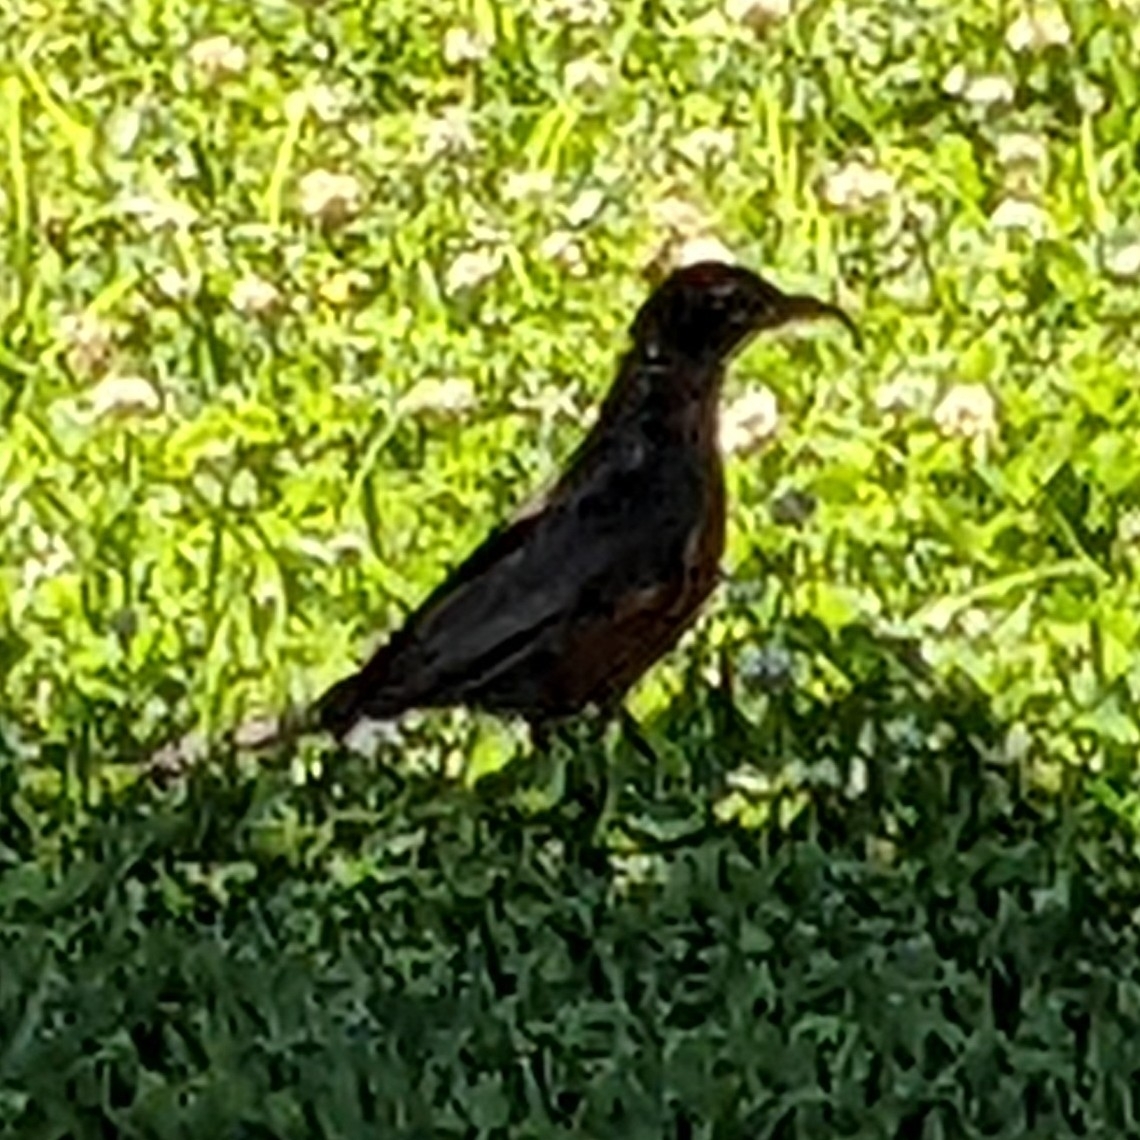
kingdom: Animalia
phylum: Chordata
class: Aves
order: Passeriformes
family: Turdidae
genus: Turdus
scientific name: Turdus migratorius
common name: American robin
